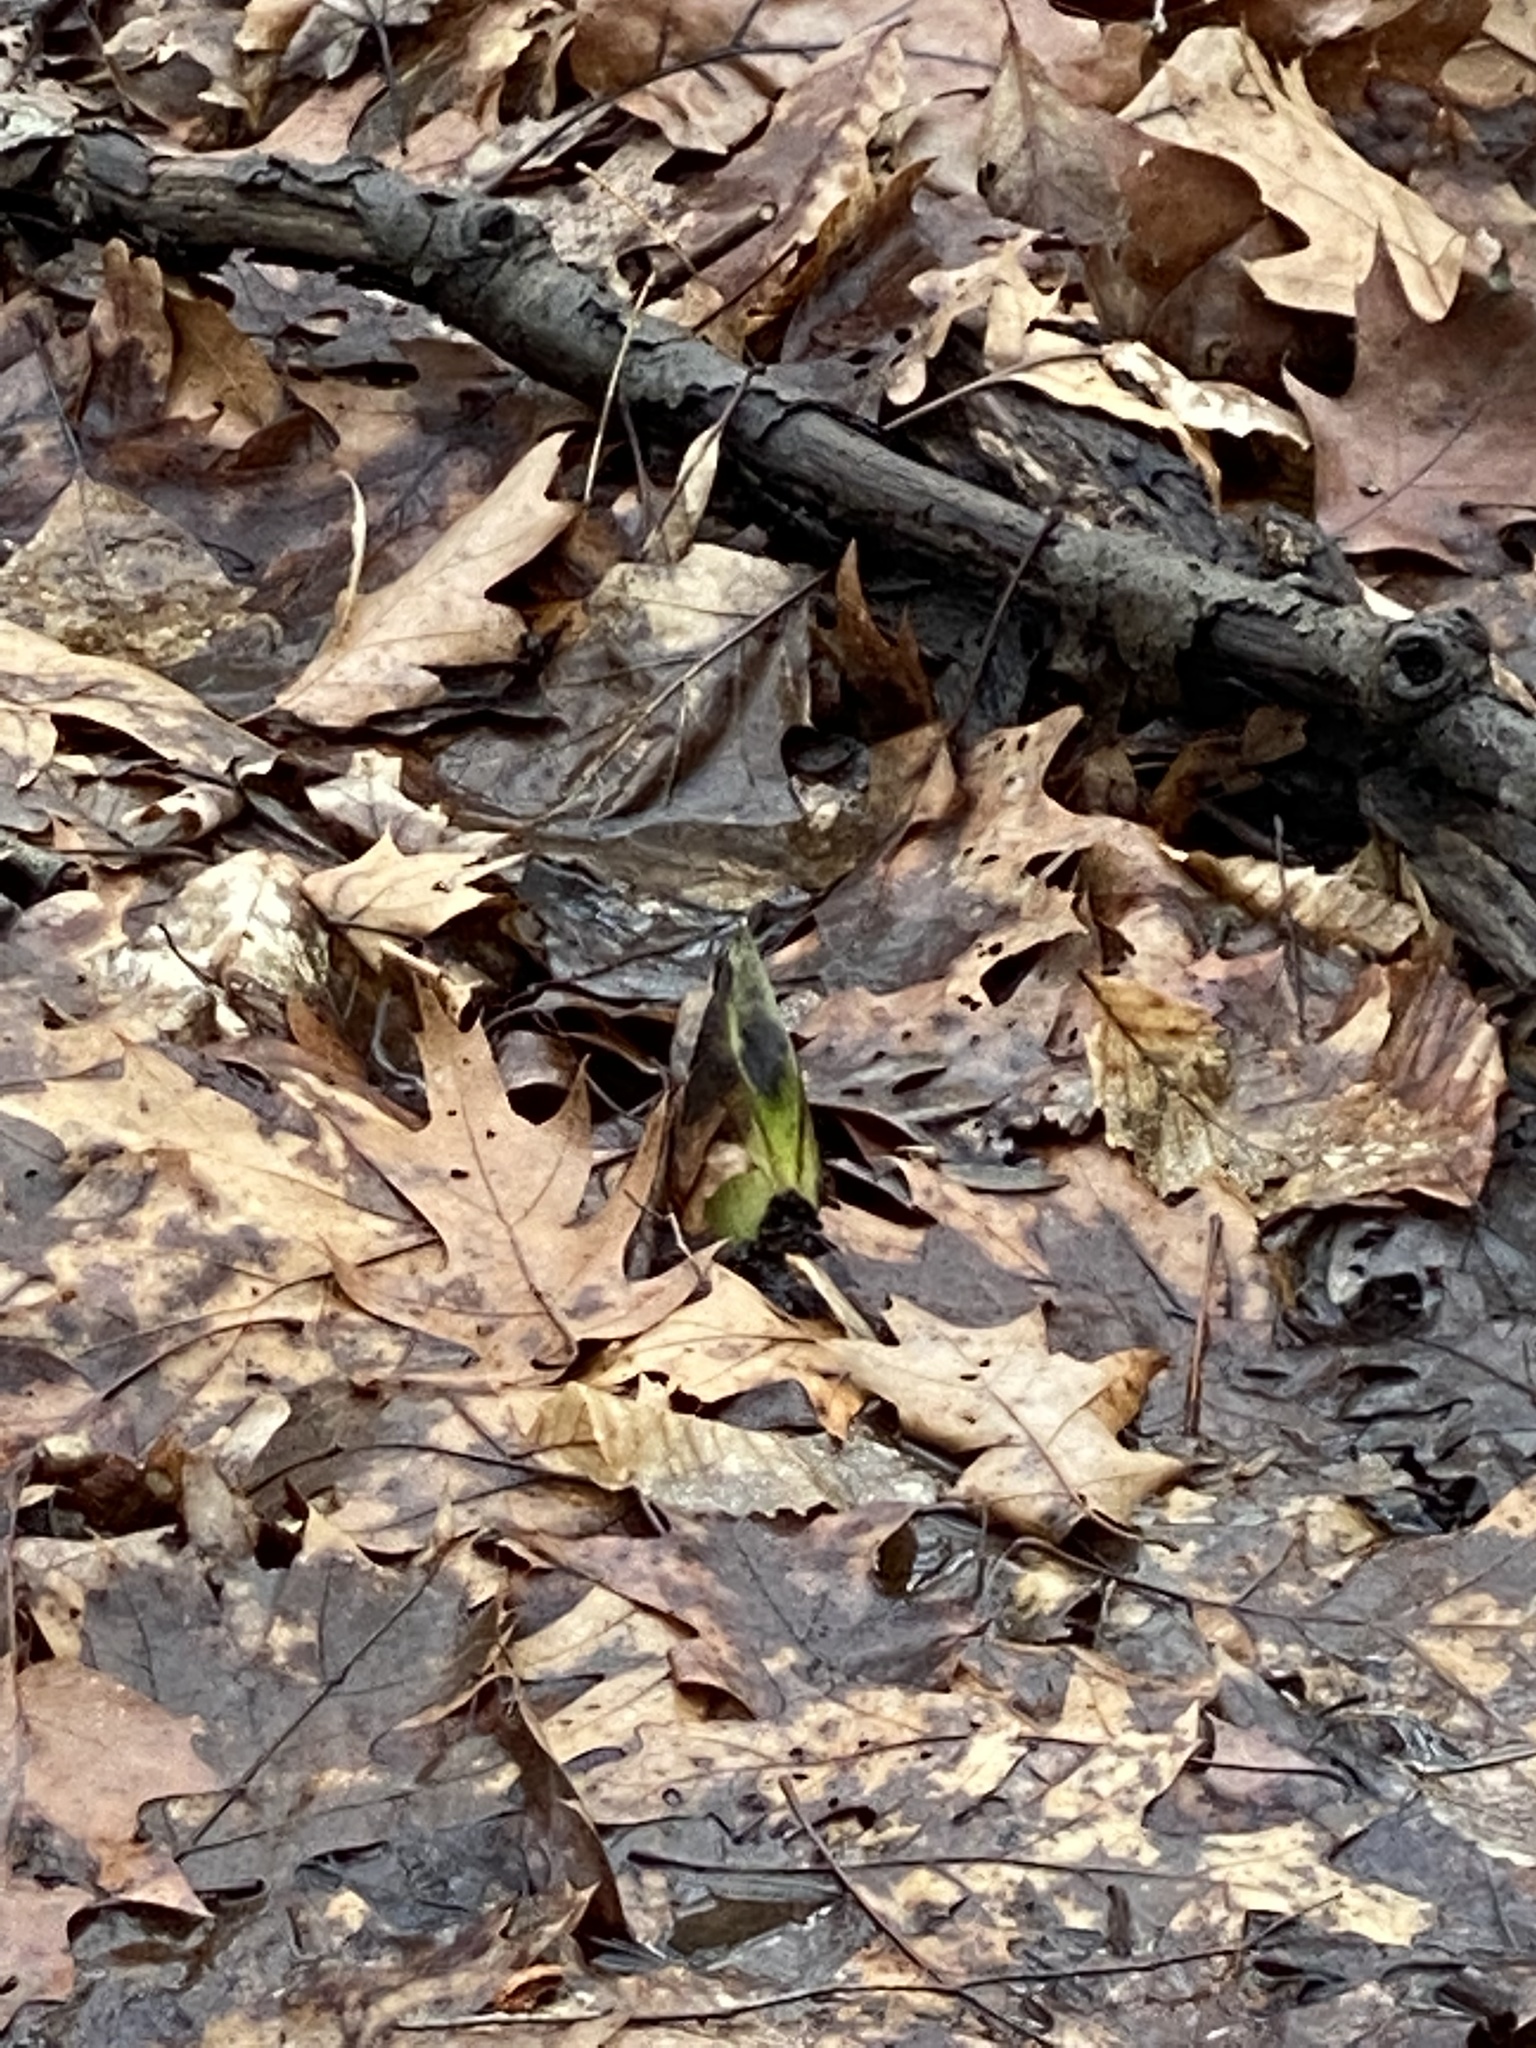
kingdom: Plantae
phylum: Tracheophyta
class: Liliopsida
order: Alismatales
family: Araceae
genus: Symplocarpus
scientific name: Symplocarpus foetidus
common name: Eastern skunk cabbage
